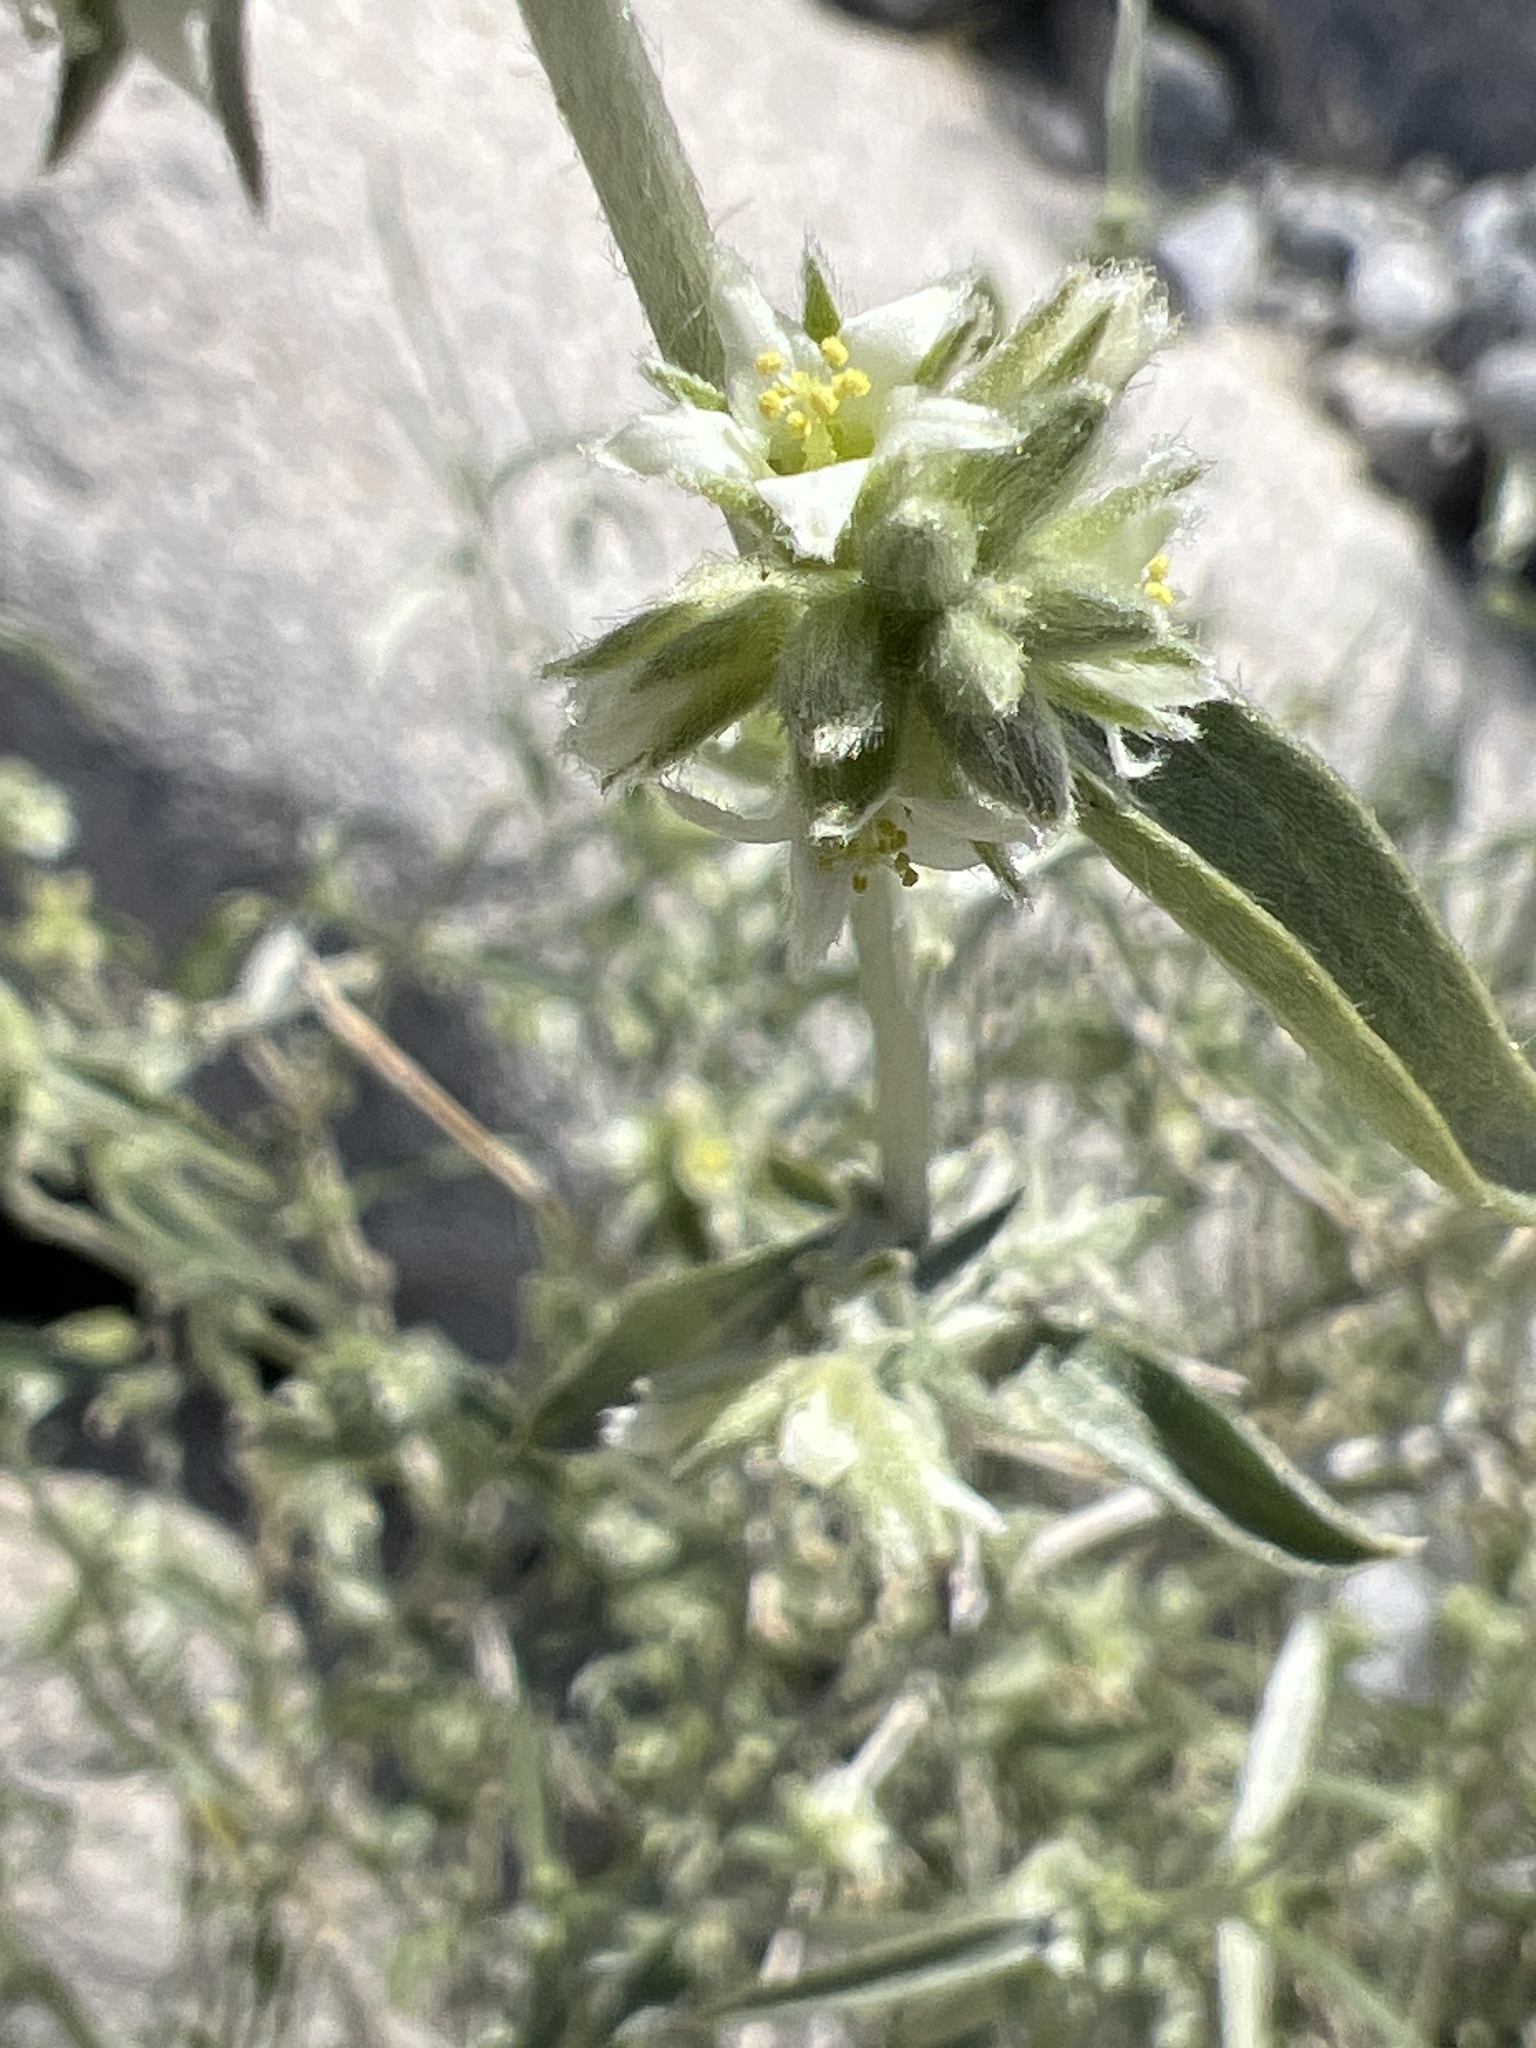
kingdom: Plantae
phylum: Tracheophyta
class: Magnoliopsida
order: Malpighiales
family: Euphorbiaceae
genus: Ditaxis
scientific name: Ditaxis lanceolata
